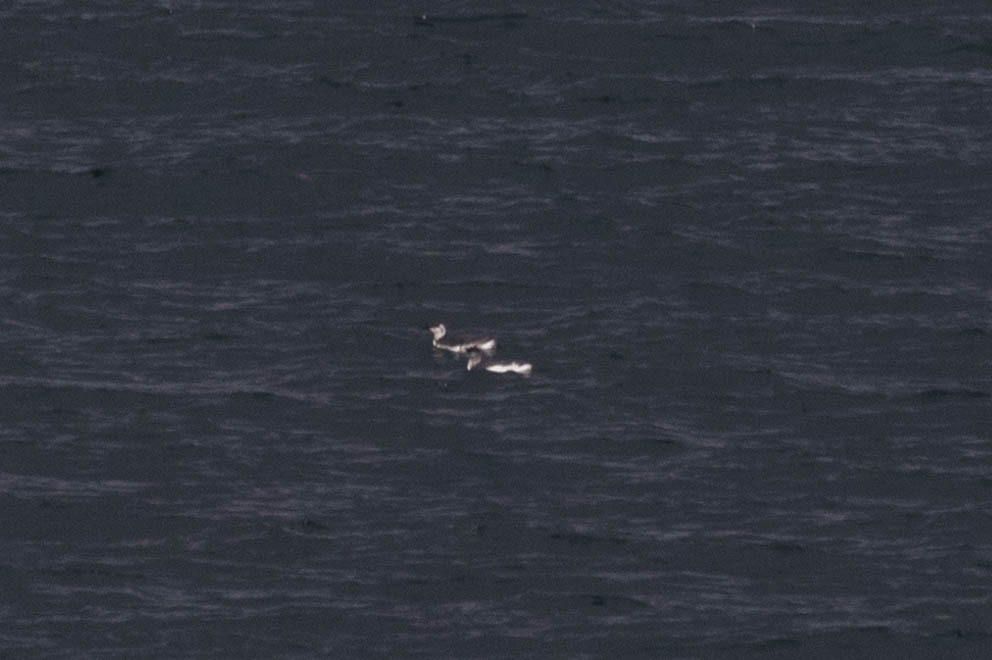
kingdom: Animalia
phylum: Chordata
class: Aves
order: Charadriiformes
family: Alcidae
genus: Uria
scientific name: Uria aalge
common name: Common murre
